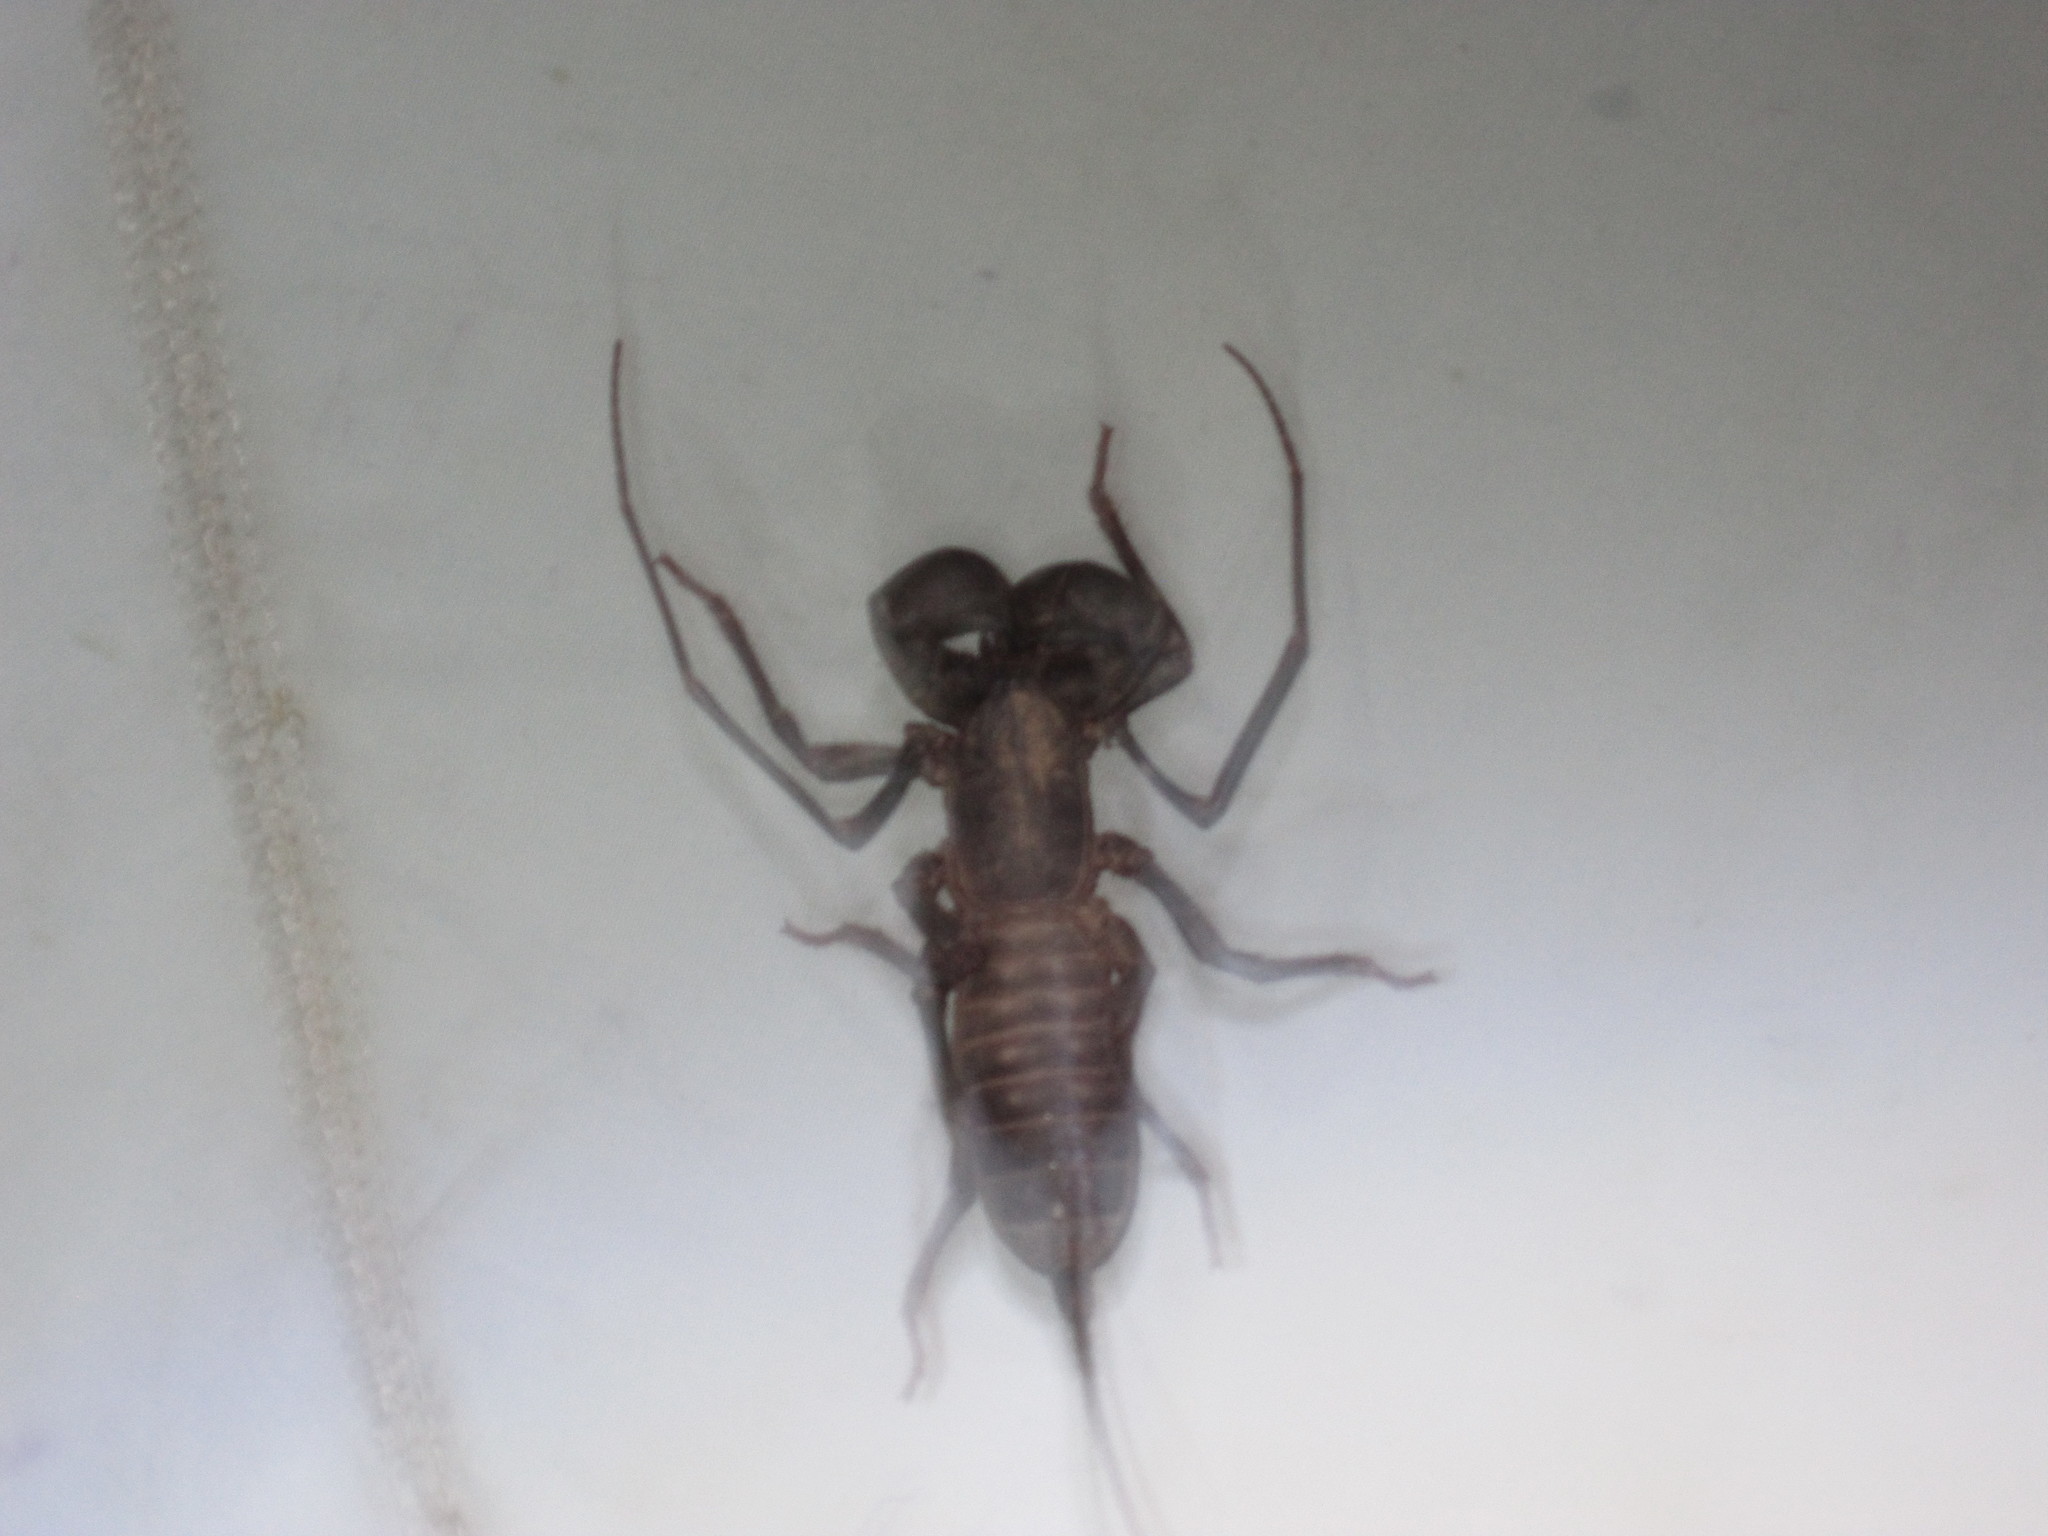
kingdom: Animalia
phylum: Arthropoda
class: Arachnida
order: Uropygi
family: Thelyphonidae
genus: Mastigoproctus
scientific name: Mastigoproctus tohono
